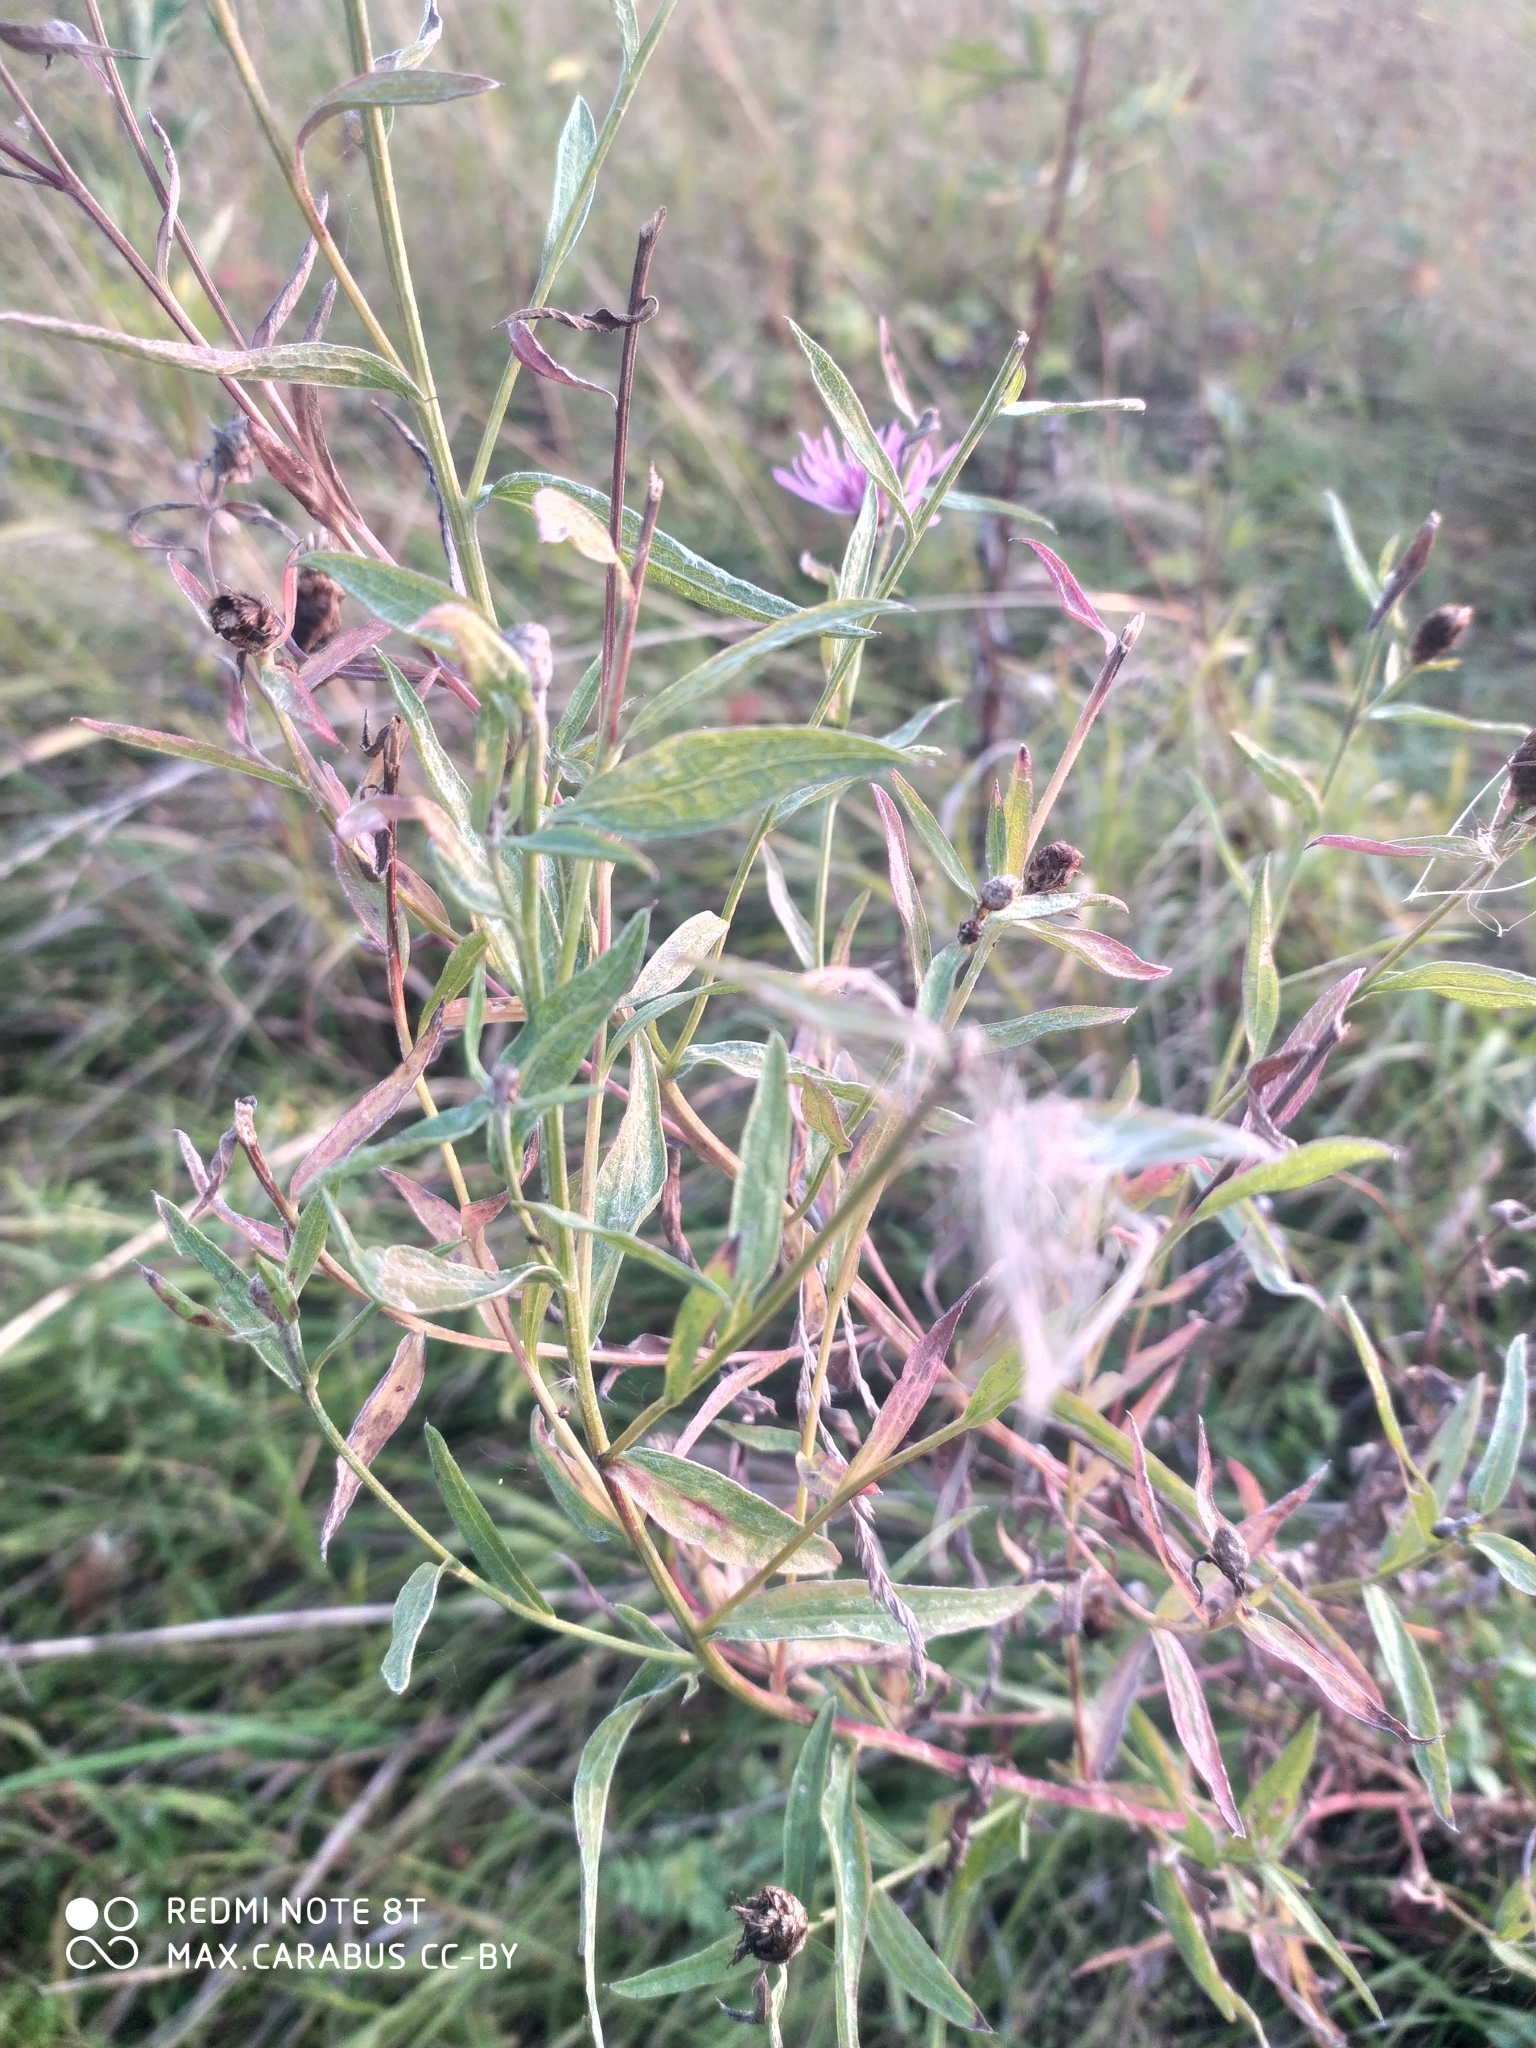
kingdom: Plantae
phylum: Tracheophyta
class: Magnoliopsida
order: Asterales
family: Asteraceae
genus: Centaurea
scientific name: Centaurea jacea
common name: Brown knapweed
